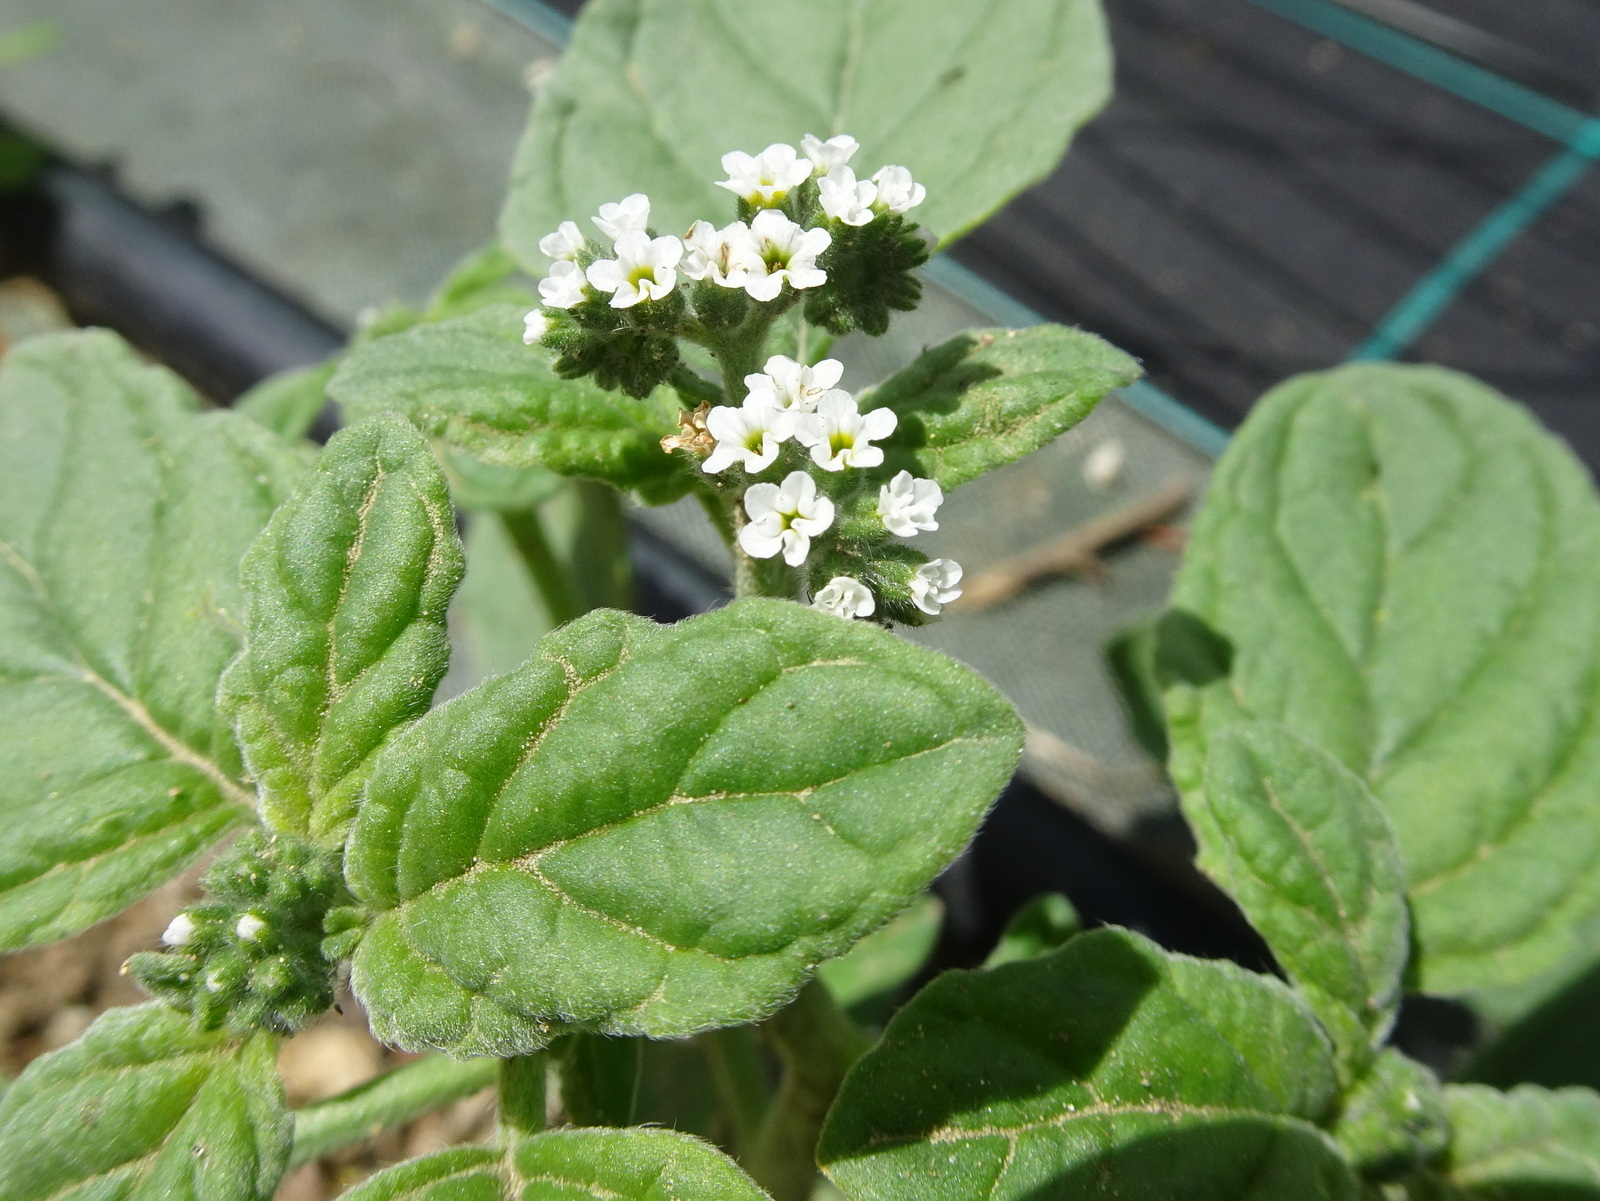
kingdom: Plantae
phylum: Tracheophyta
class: Magnoliopsida
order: Boraginales
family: Heliotropiaceae
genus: Heliotropium
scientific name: Heliotropium europaeum
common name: European heliotrope
